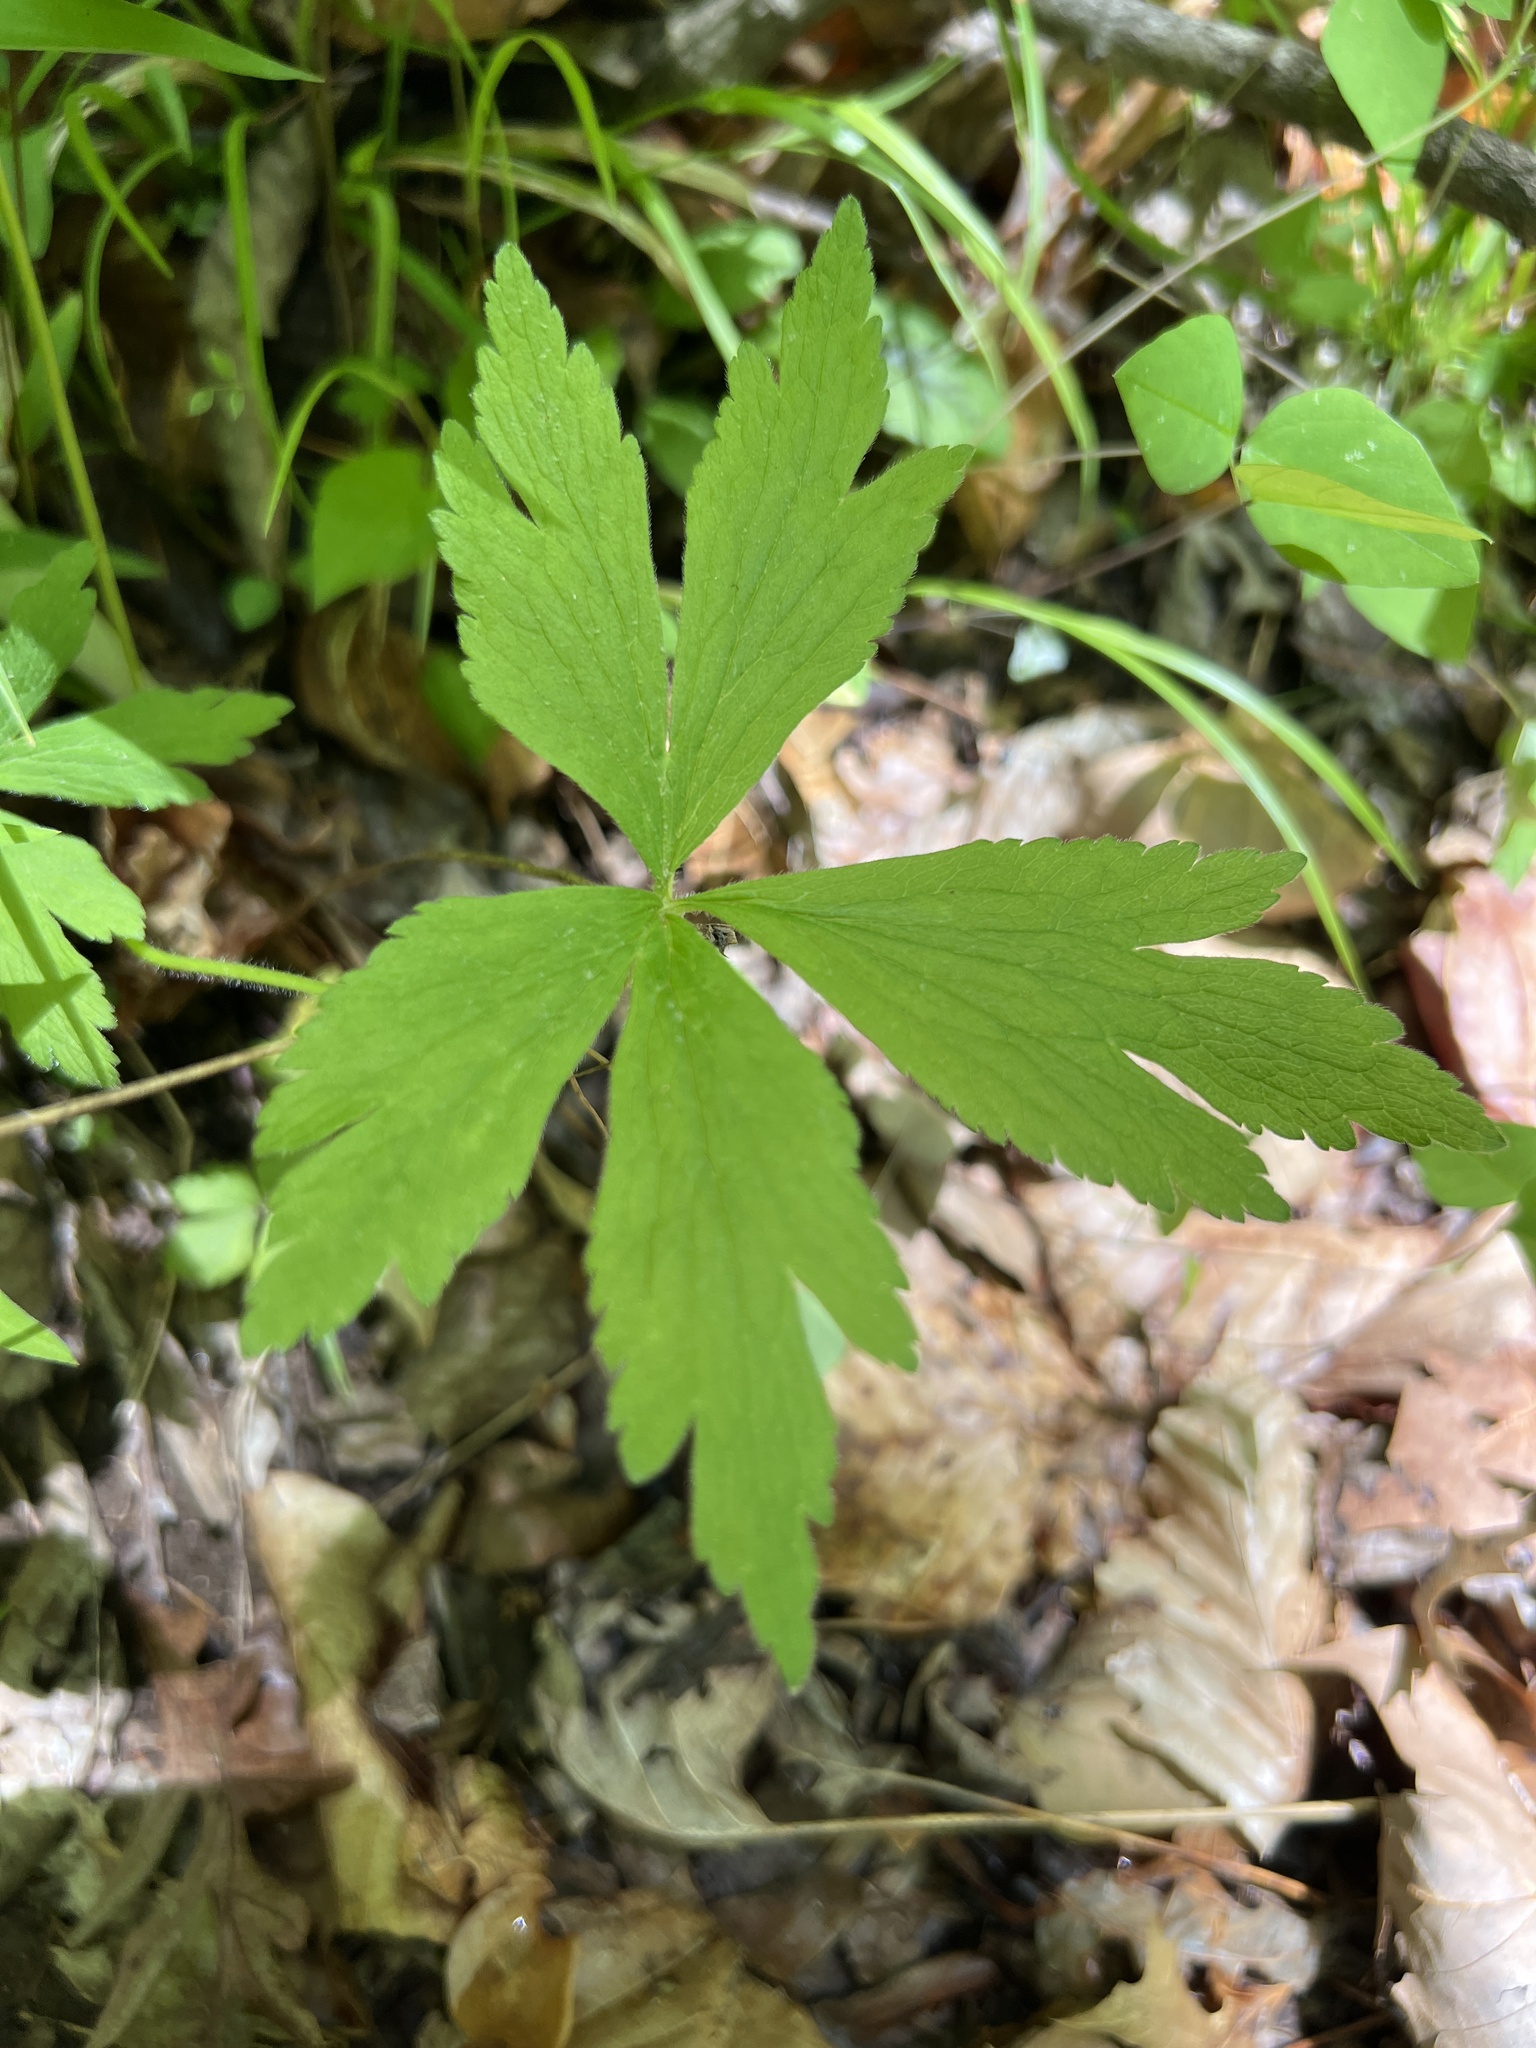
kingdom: Plantae
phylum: Tracheophyta
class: Magnoliopsida
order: Ranunculales
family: Ranunculaceae
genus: Anemone
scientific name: Anemone virginiana
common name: Tall anemone
